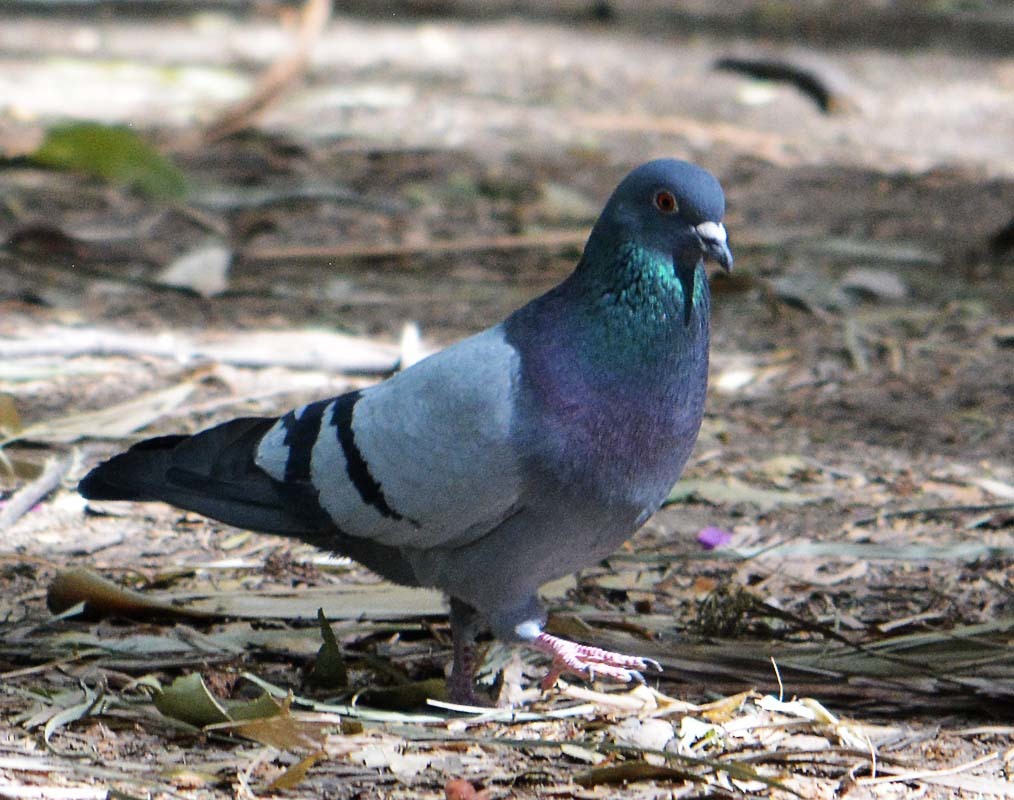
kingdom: Animalia
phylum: Chordata
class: Aves
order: Columbiformes
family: Columbidae
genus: Columba
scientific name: Columba livia
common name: Rock pigeon
